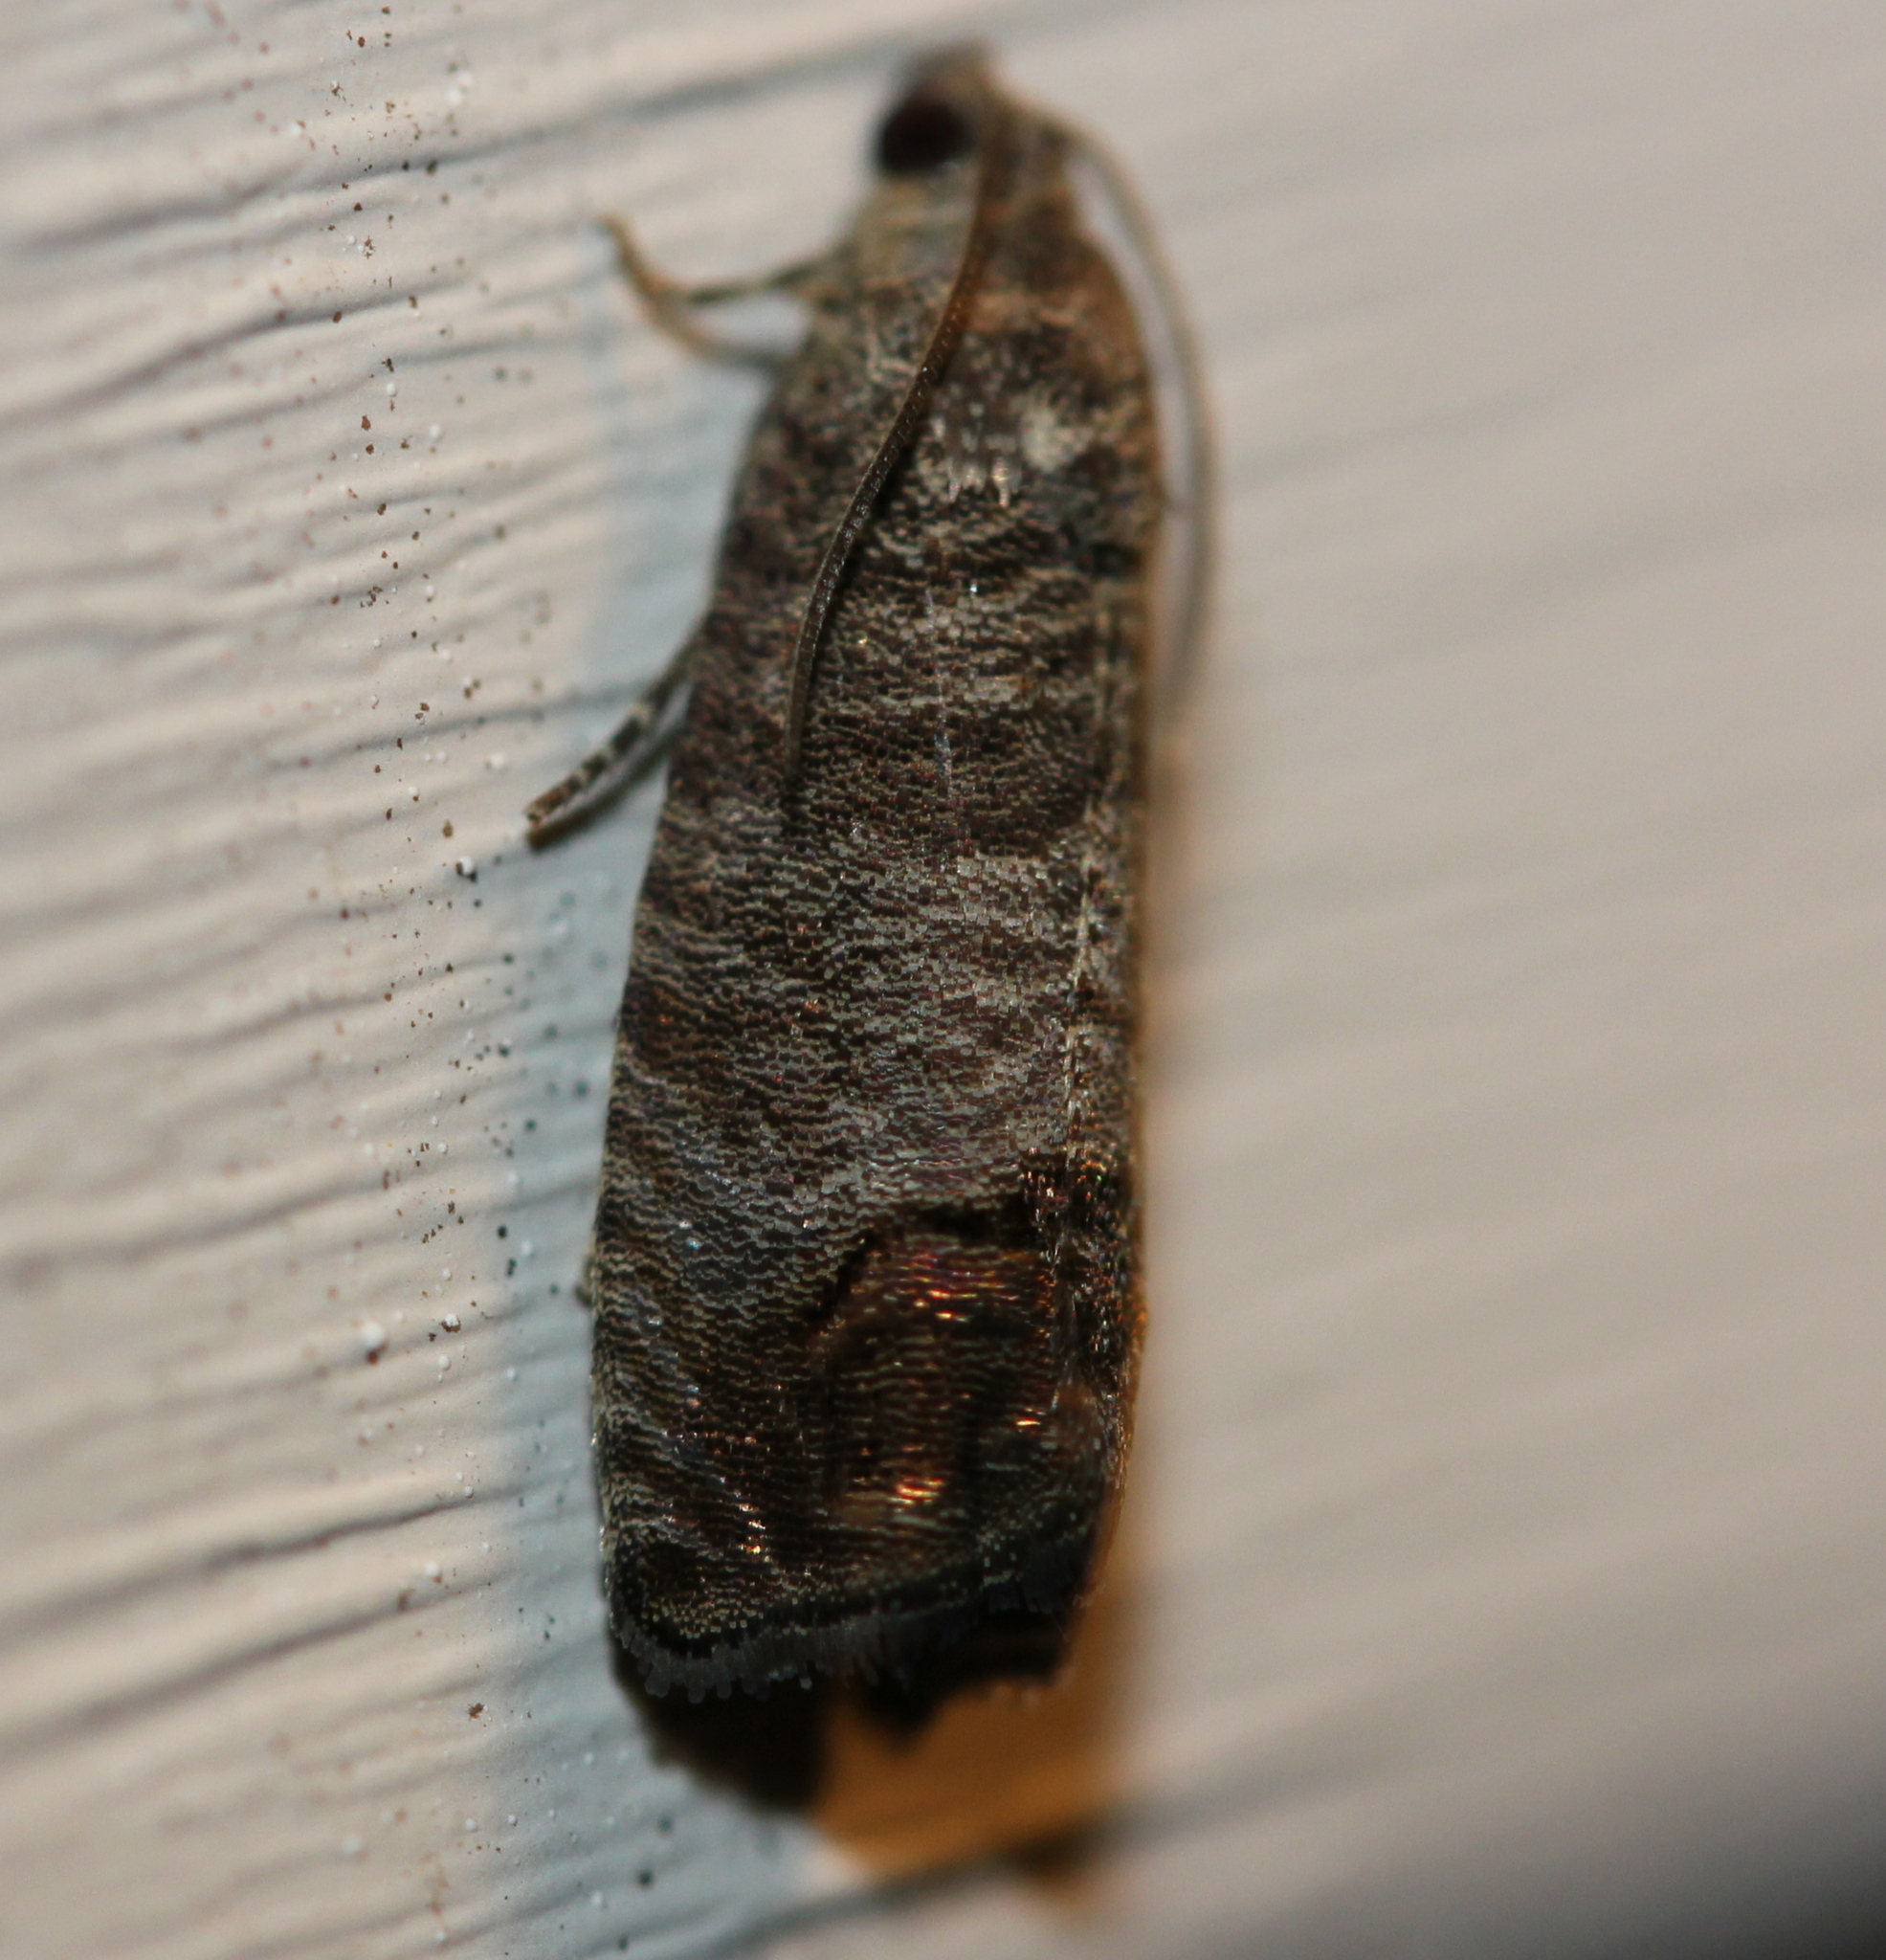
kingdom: Animalia
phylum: Arthropoda
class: Insecta
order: Lepidoptera
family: Tortricidae
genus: Cydia
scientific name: Cydia pomonella
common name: Codling moth
